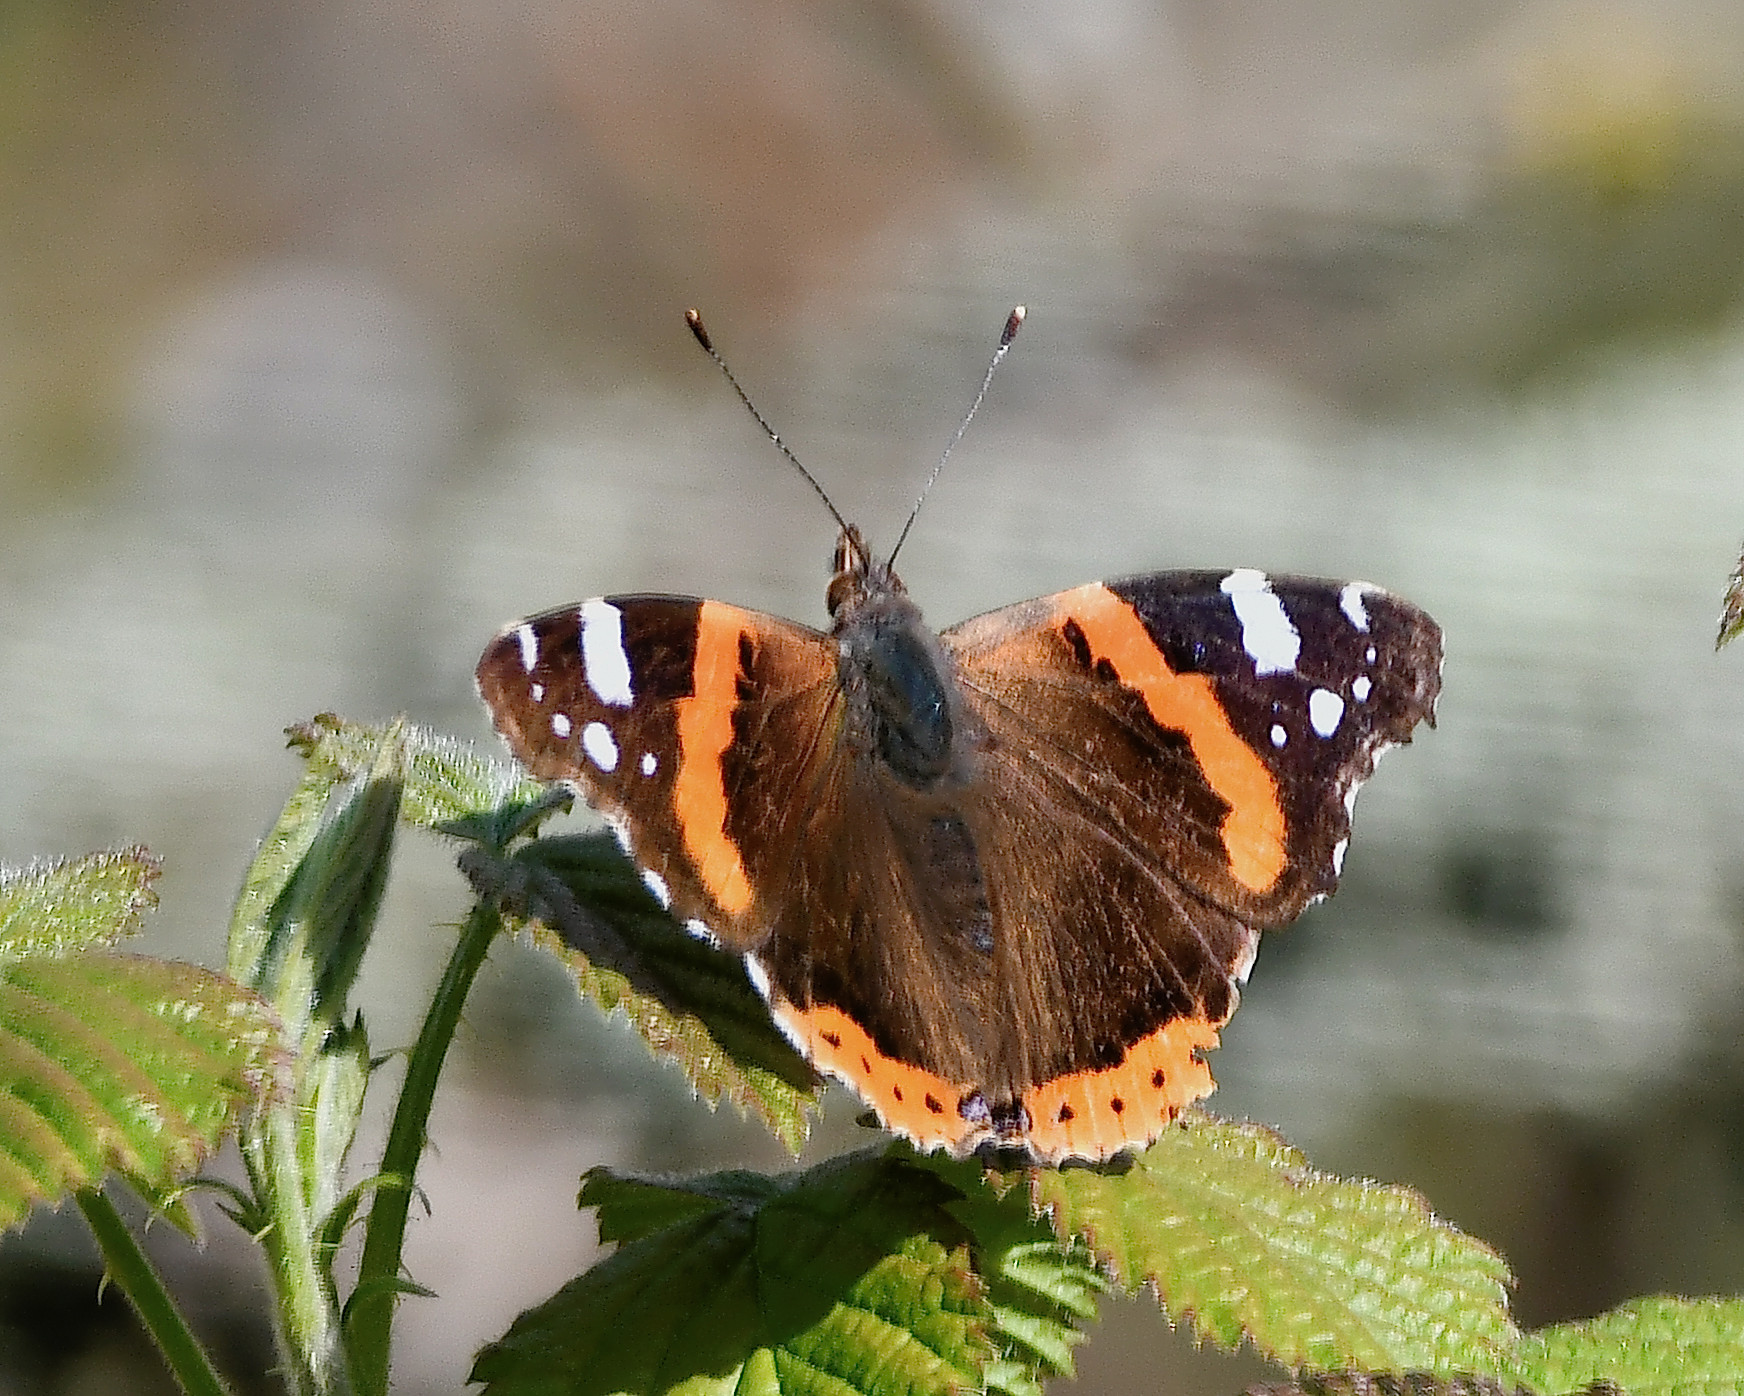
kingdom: Animalia
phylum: Arthropoda
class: Insecta
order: Lepidoptera
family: Nymphalidae
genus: Vanessa
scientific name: Vanessa atalanta
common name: Red admiral
